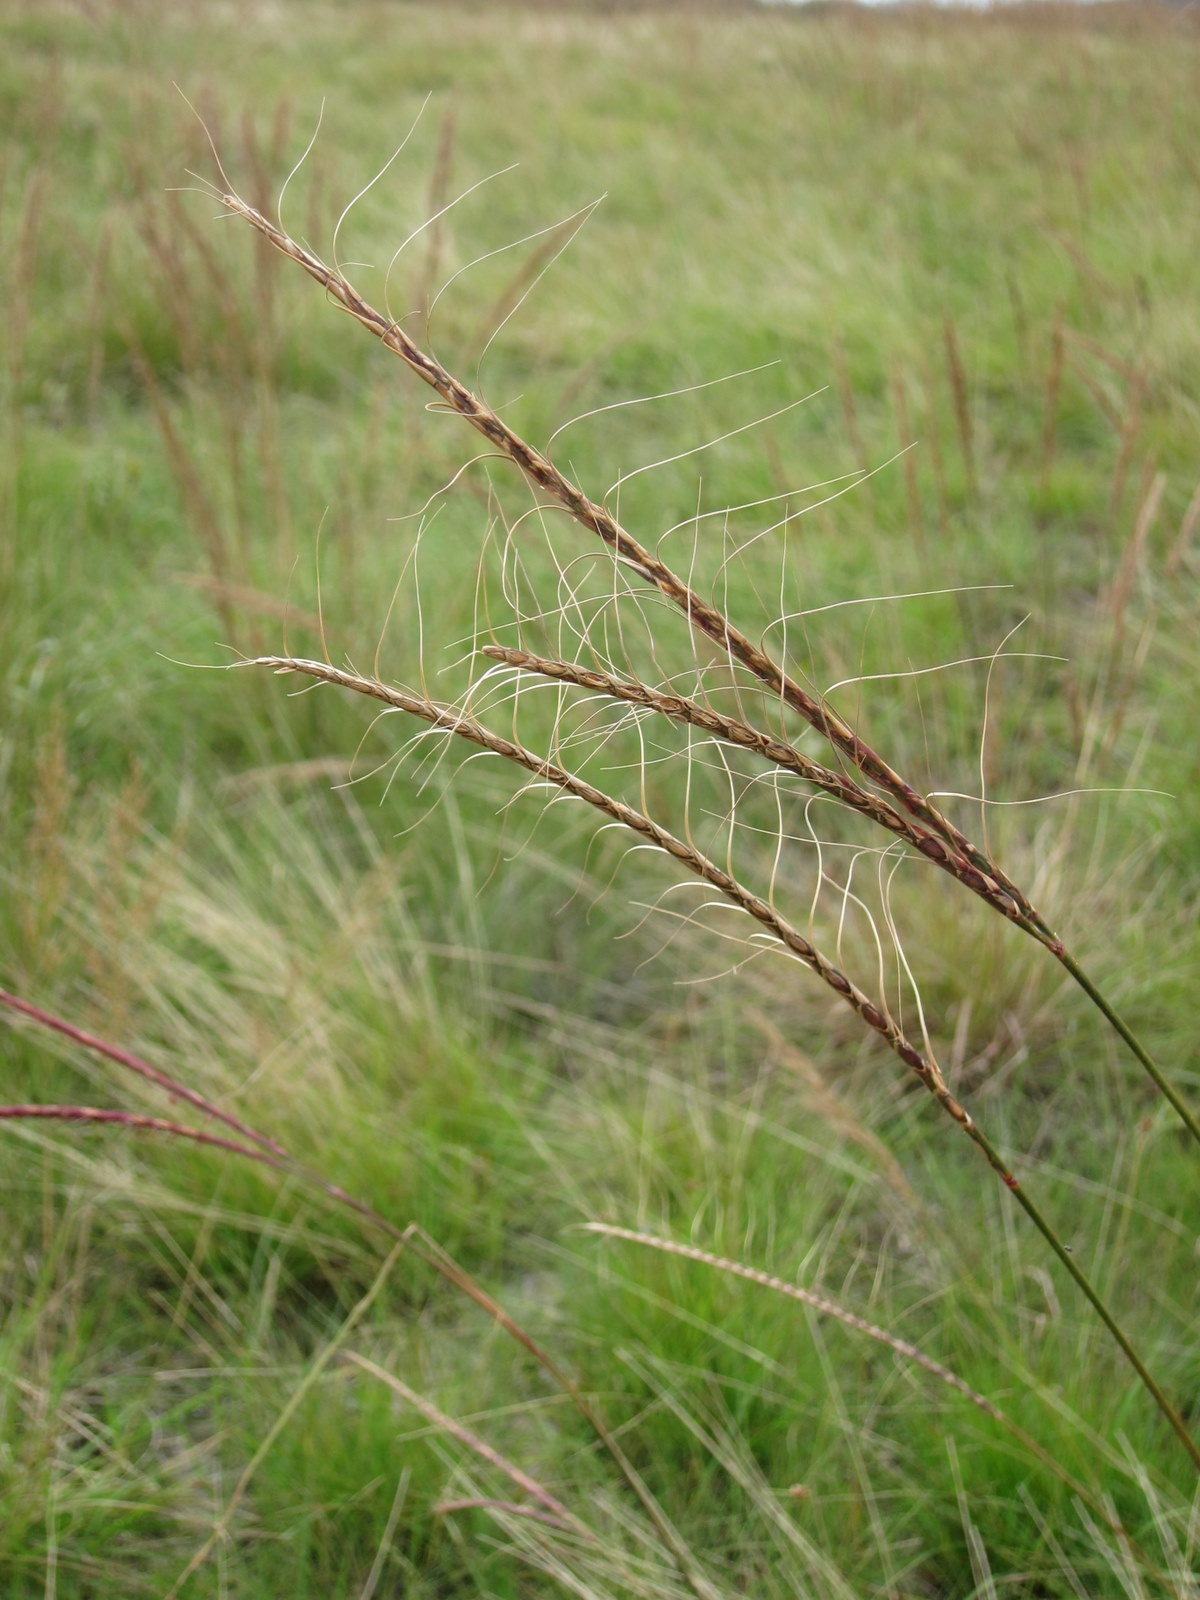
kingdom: Plantae
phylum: Tracheophyta
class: Liliopsida
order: Poales
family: Poaceae
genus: Urelytrum
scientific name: Urelytrum agropyroides
